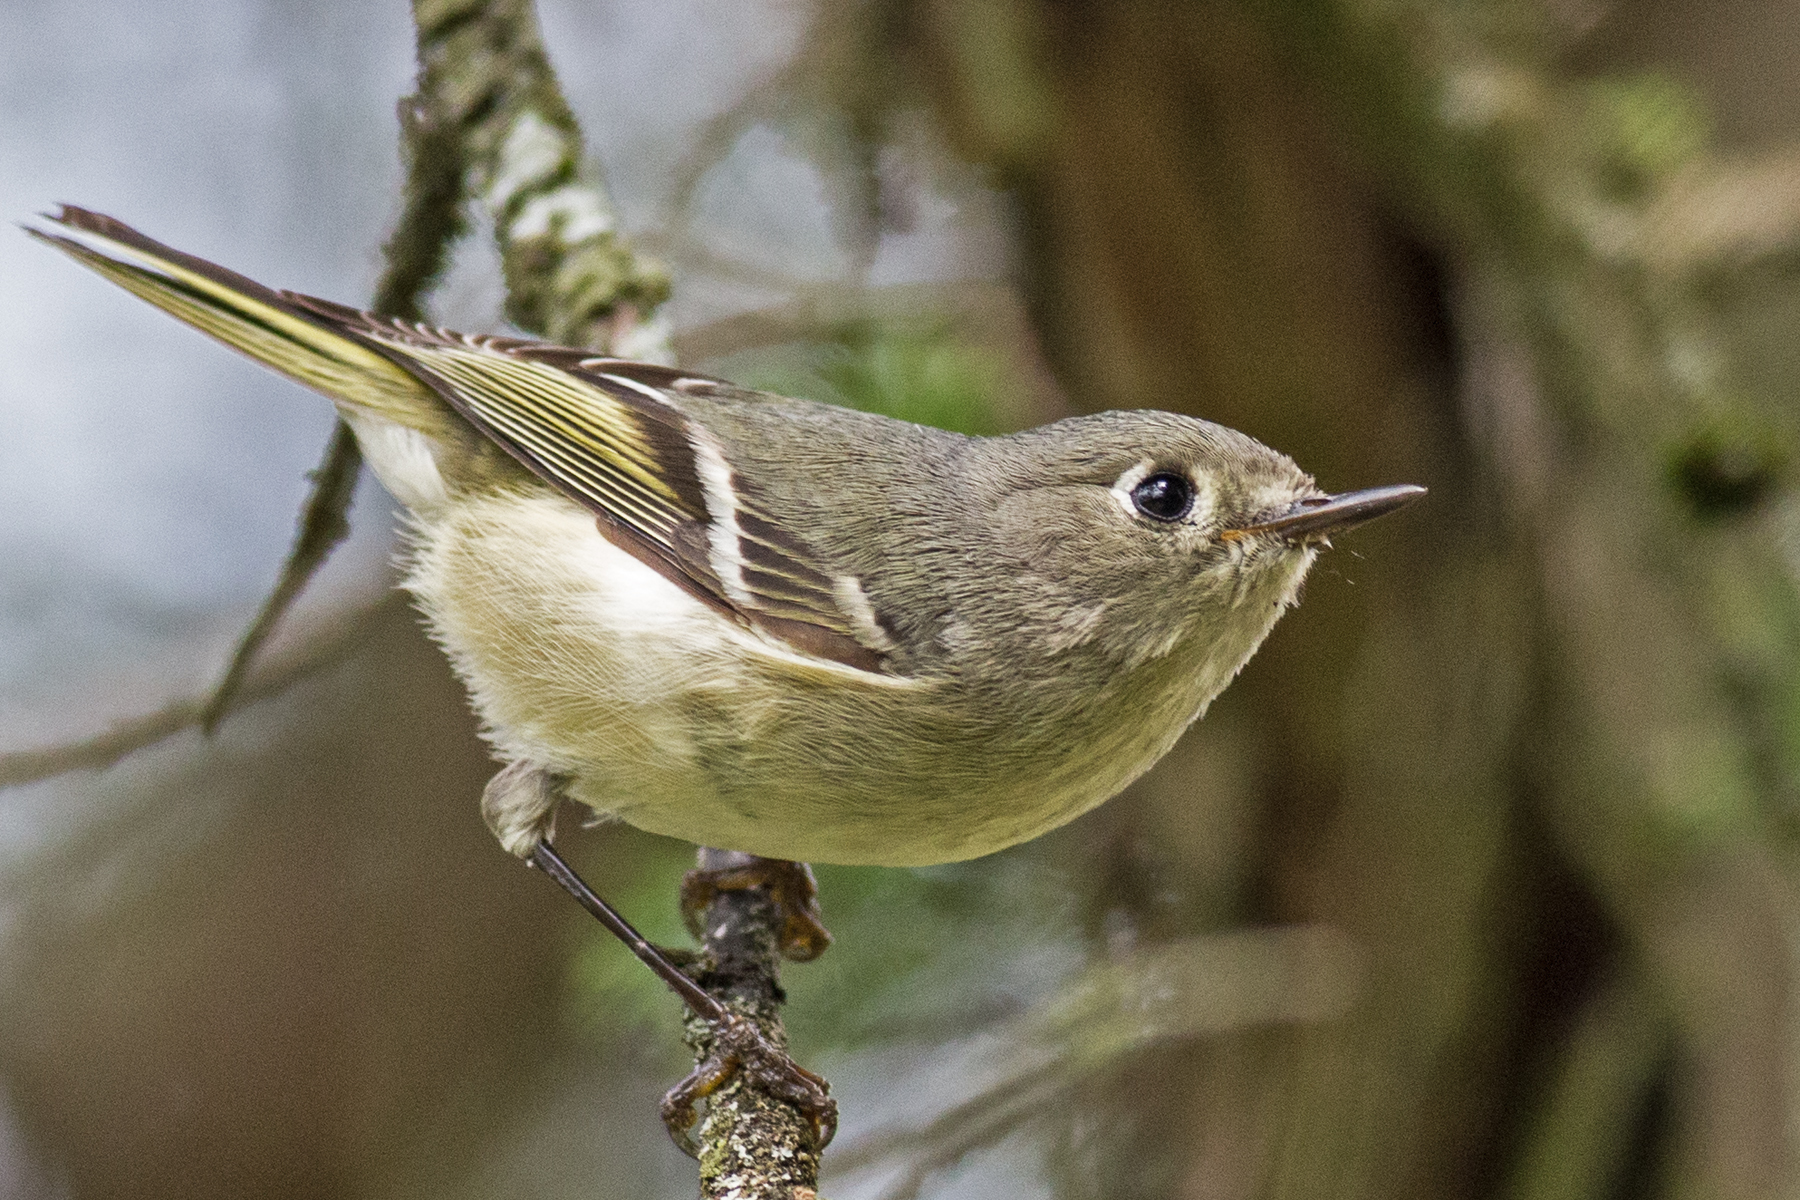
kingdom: Animalia
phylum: Chordata
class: Aves
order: Passeriformes
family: Regulidae
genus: Regulus
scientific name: Regulus calendula
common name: Ruby-crowned kinglet
